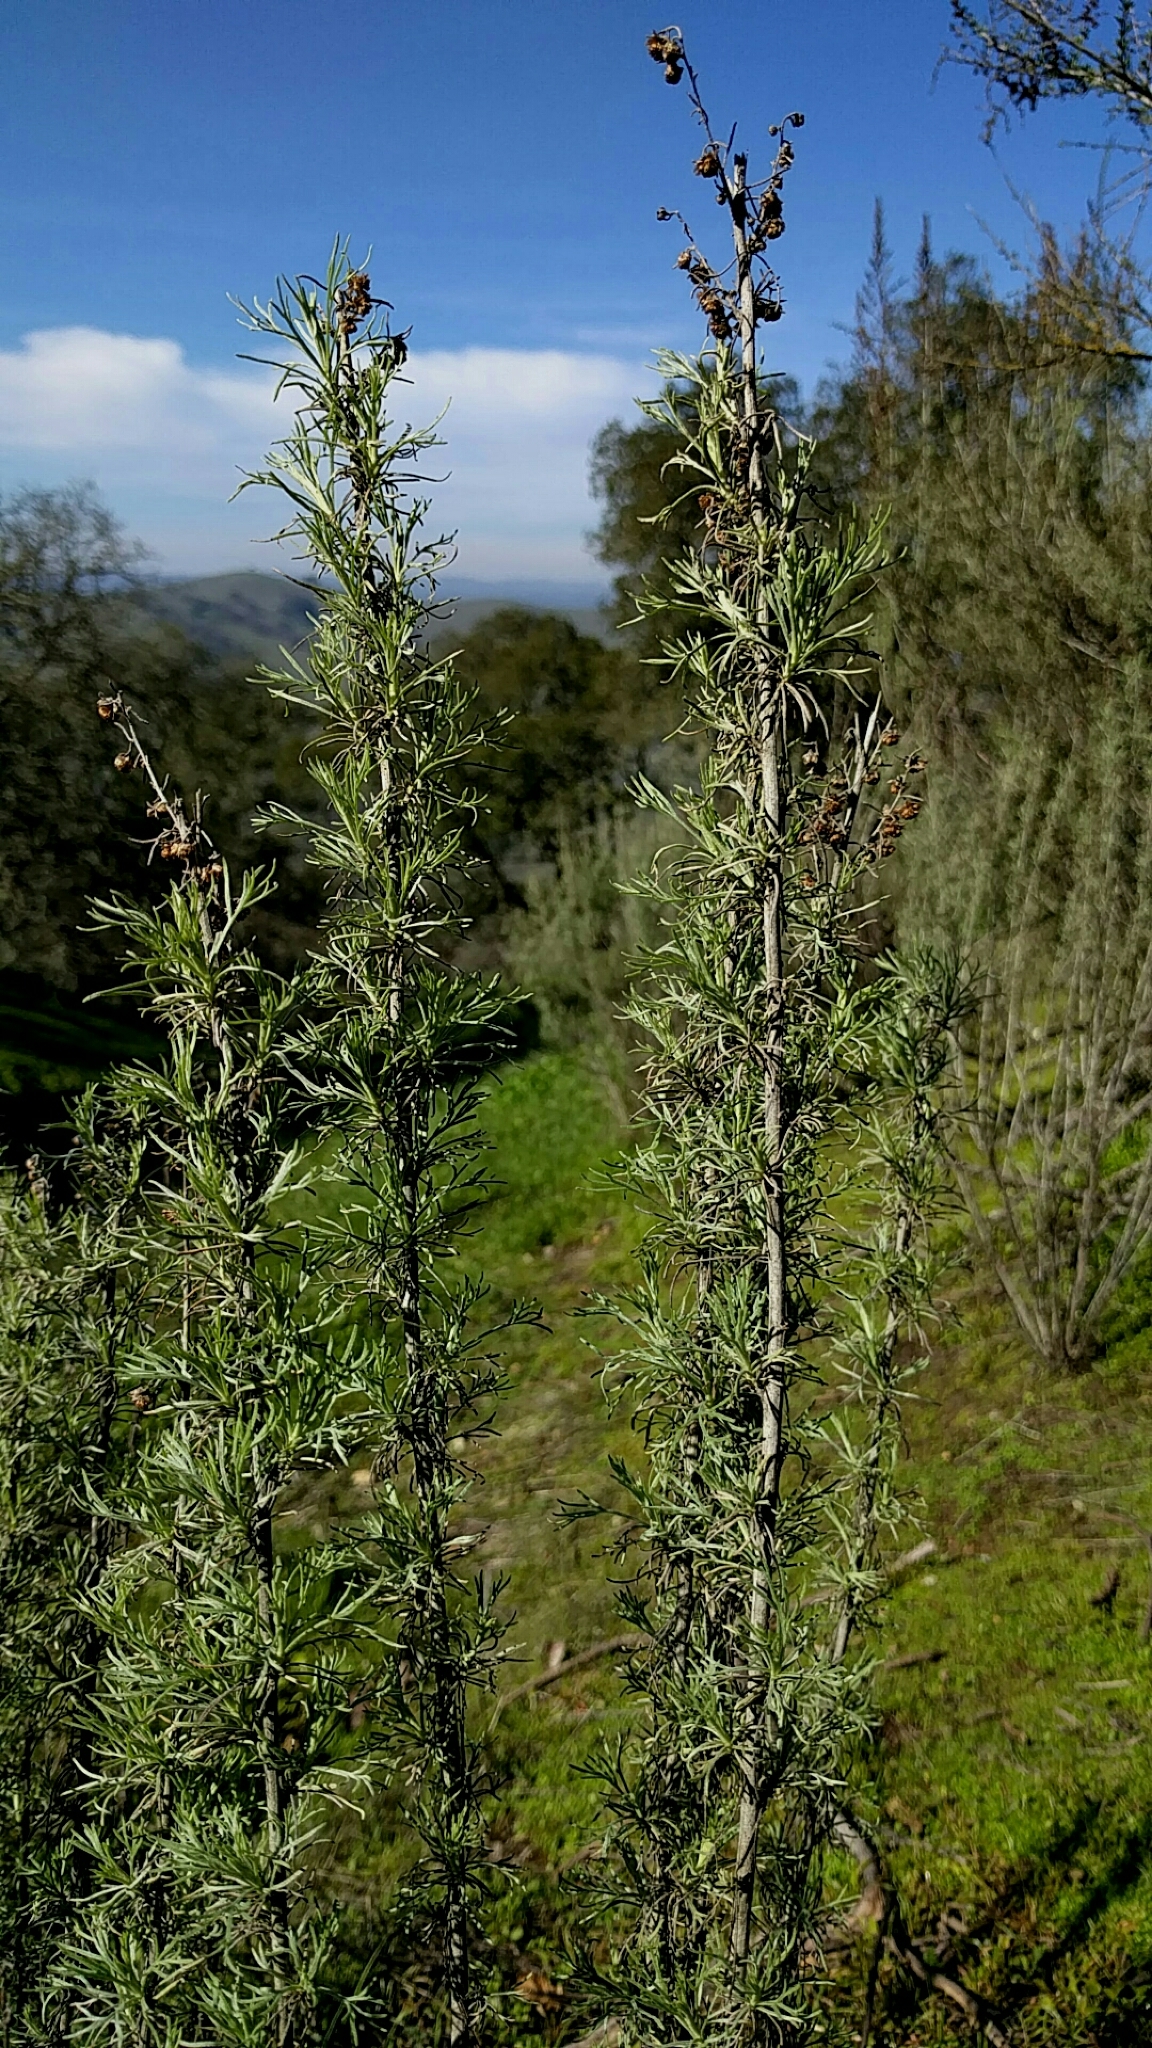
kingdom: Plantae
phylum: Tracheophyta
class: Magnoliopsida
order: Asterales
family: Asteraceae
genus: Artemisia
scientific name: Artemisia californica
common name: California sagebrush
